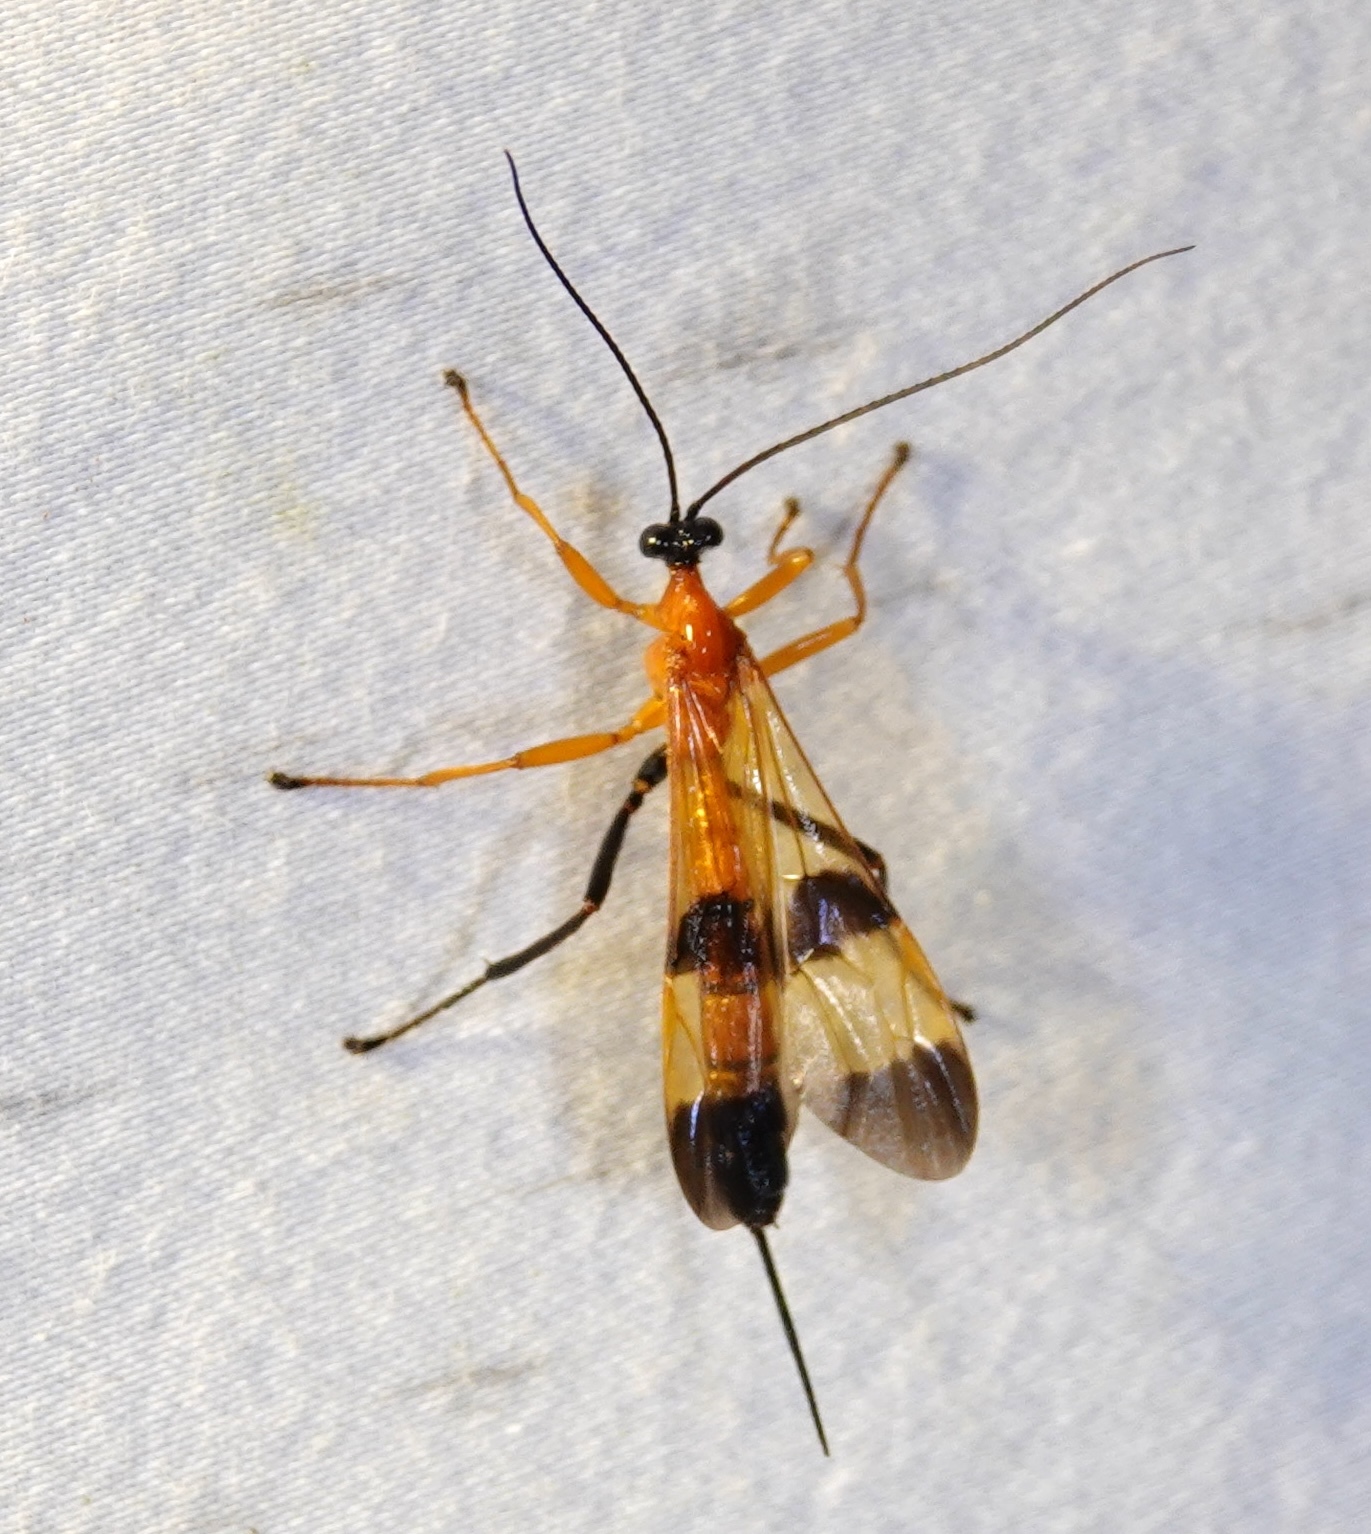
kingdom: Animalia
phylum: Arthropoda
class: Insecta
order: Hymenoptera
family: Ichneumonidae
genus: Acrotaphus
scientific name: Acrotaphus fasciatus
